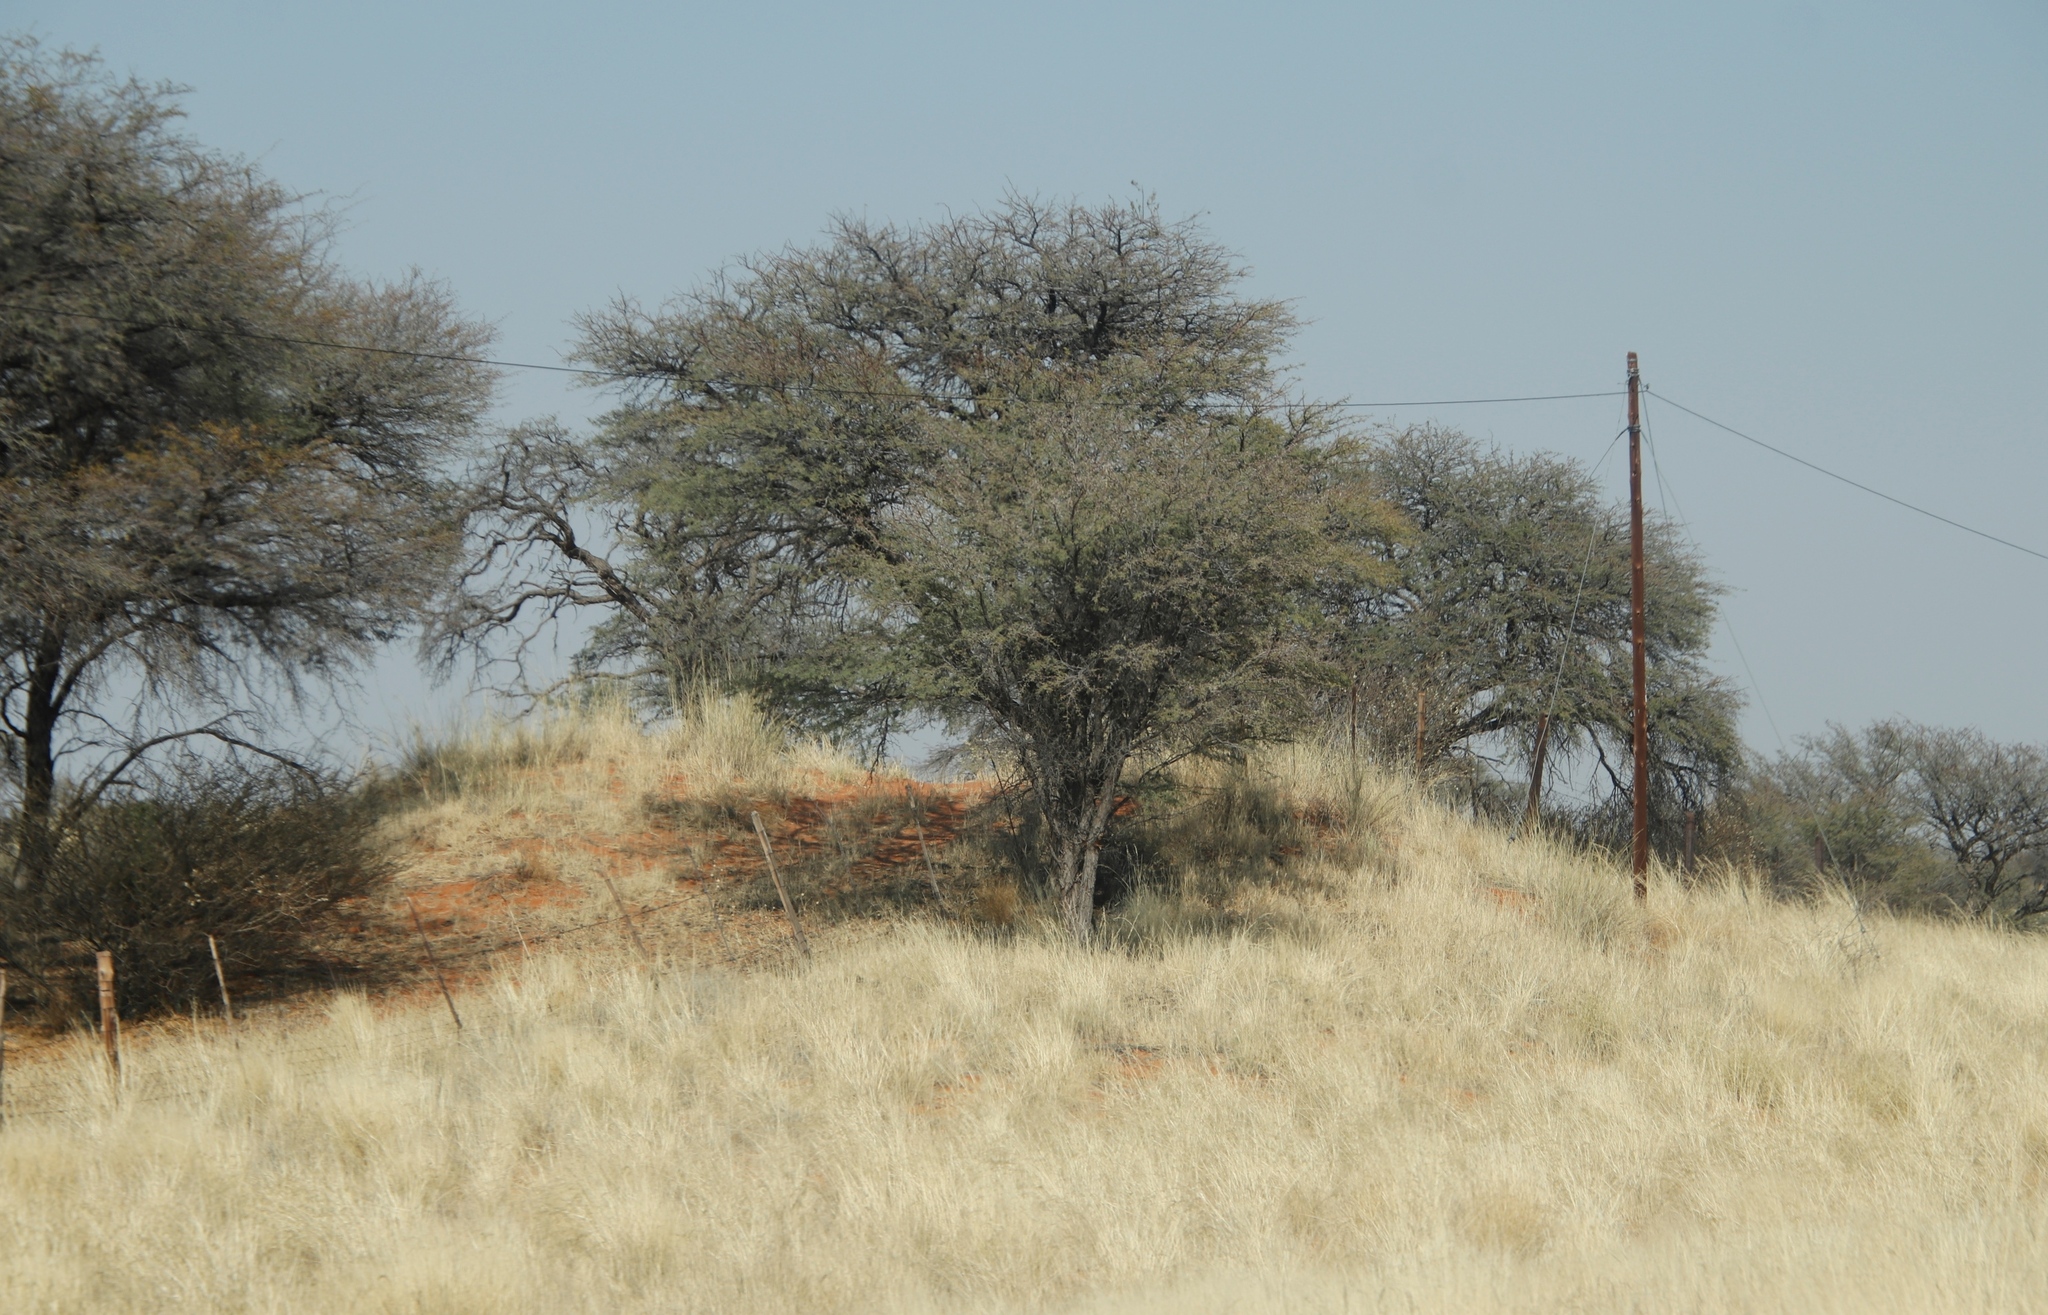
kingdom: Plantae
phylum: Tracheophyta
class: Magnoliopsida
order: Fabales
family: Fabaceae
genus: Vachellia
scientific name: Vachellia erioloba
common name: Camel thorn
